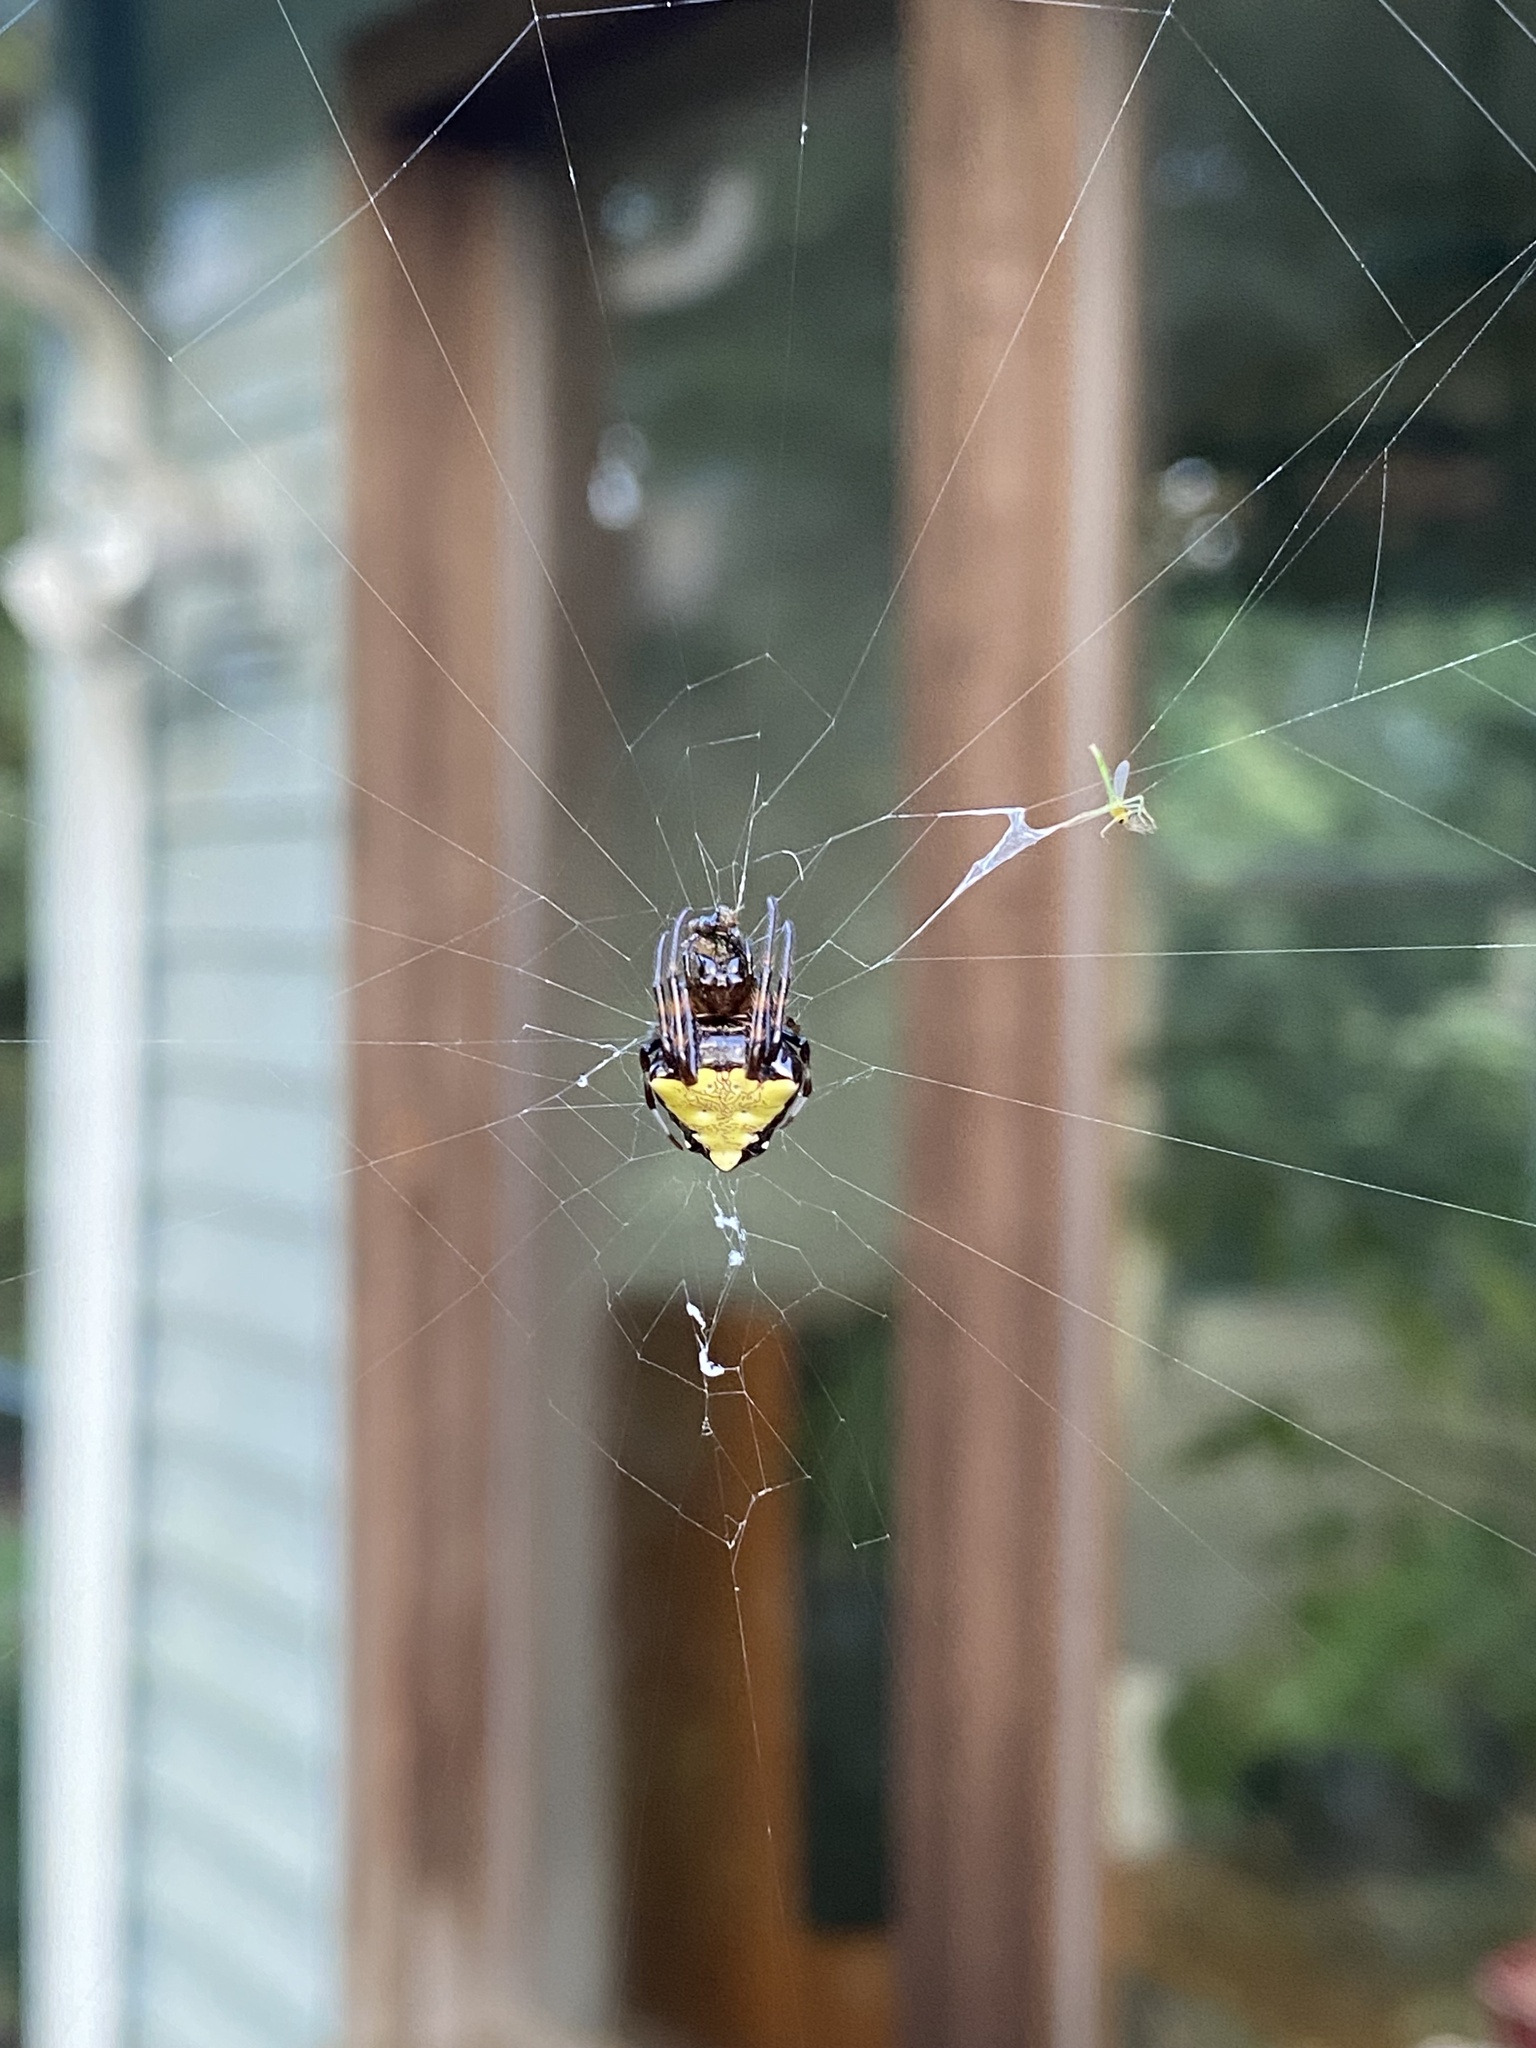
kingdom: Animalia
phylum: Arthropoda
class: Arachnida
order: Araneae
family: Araneidae
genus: Verrucosa
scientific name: Verrucosa arenata
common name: Orb weavers
